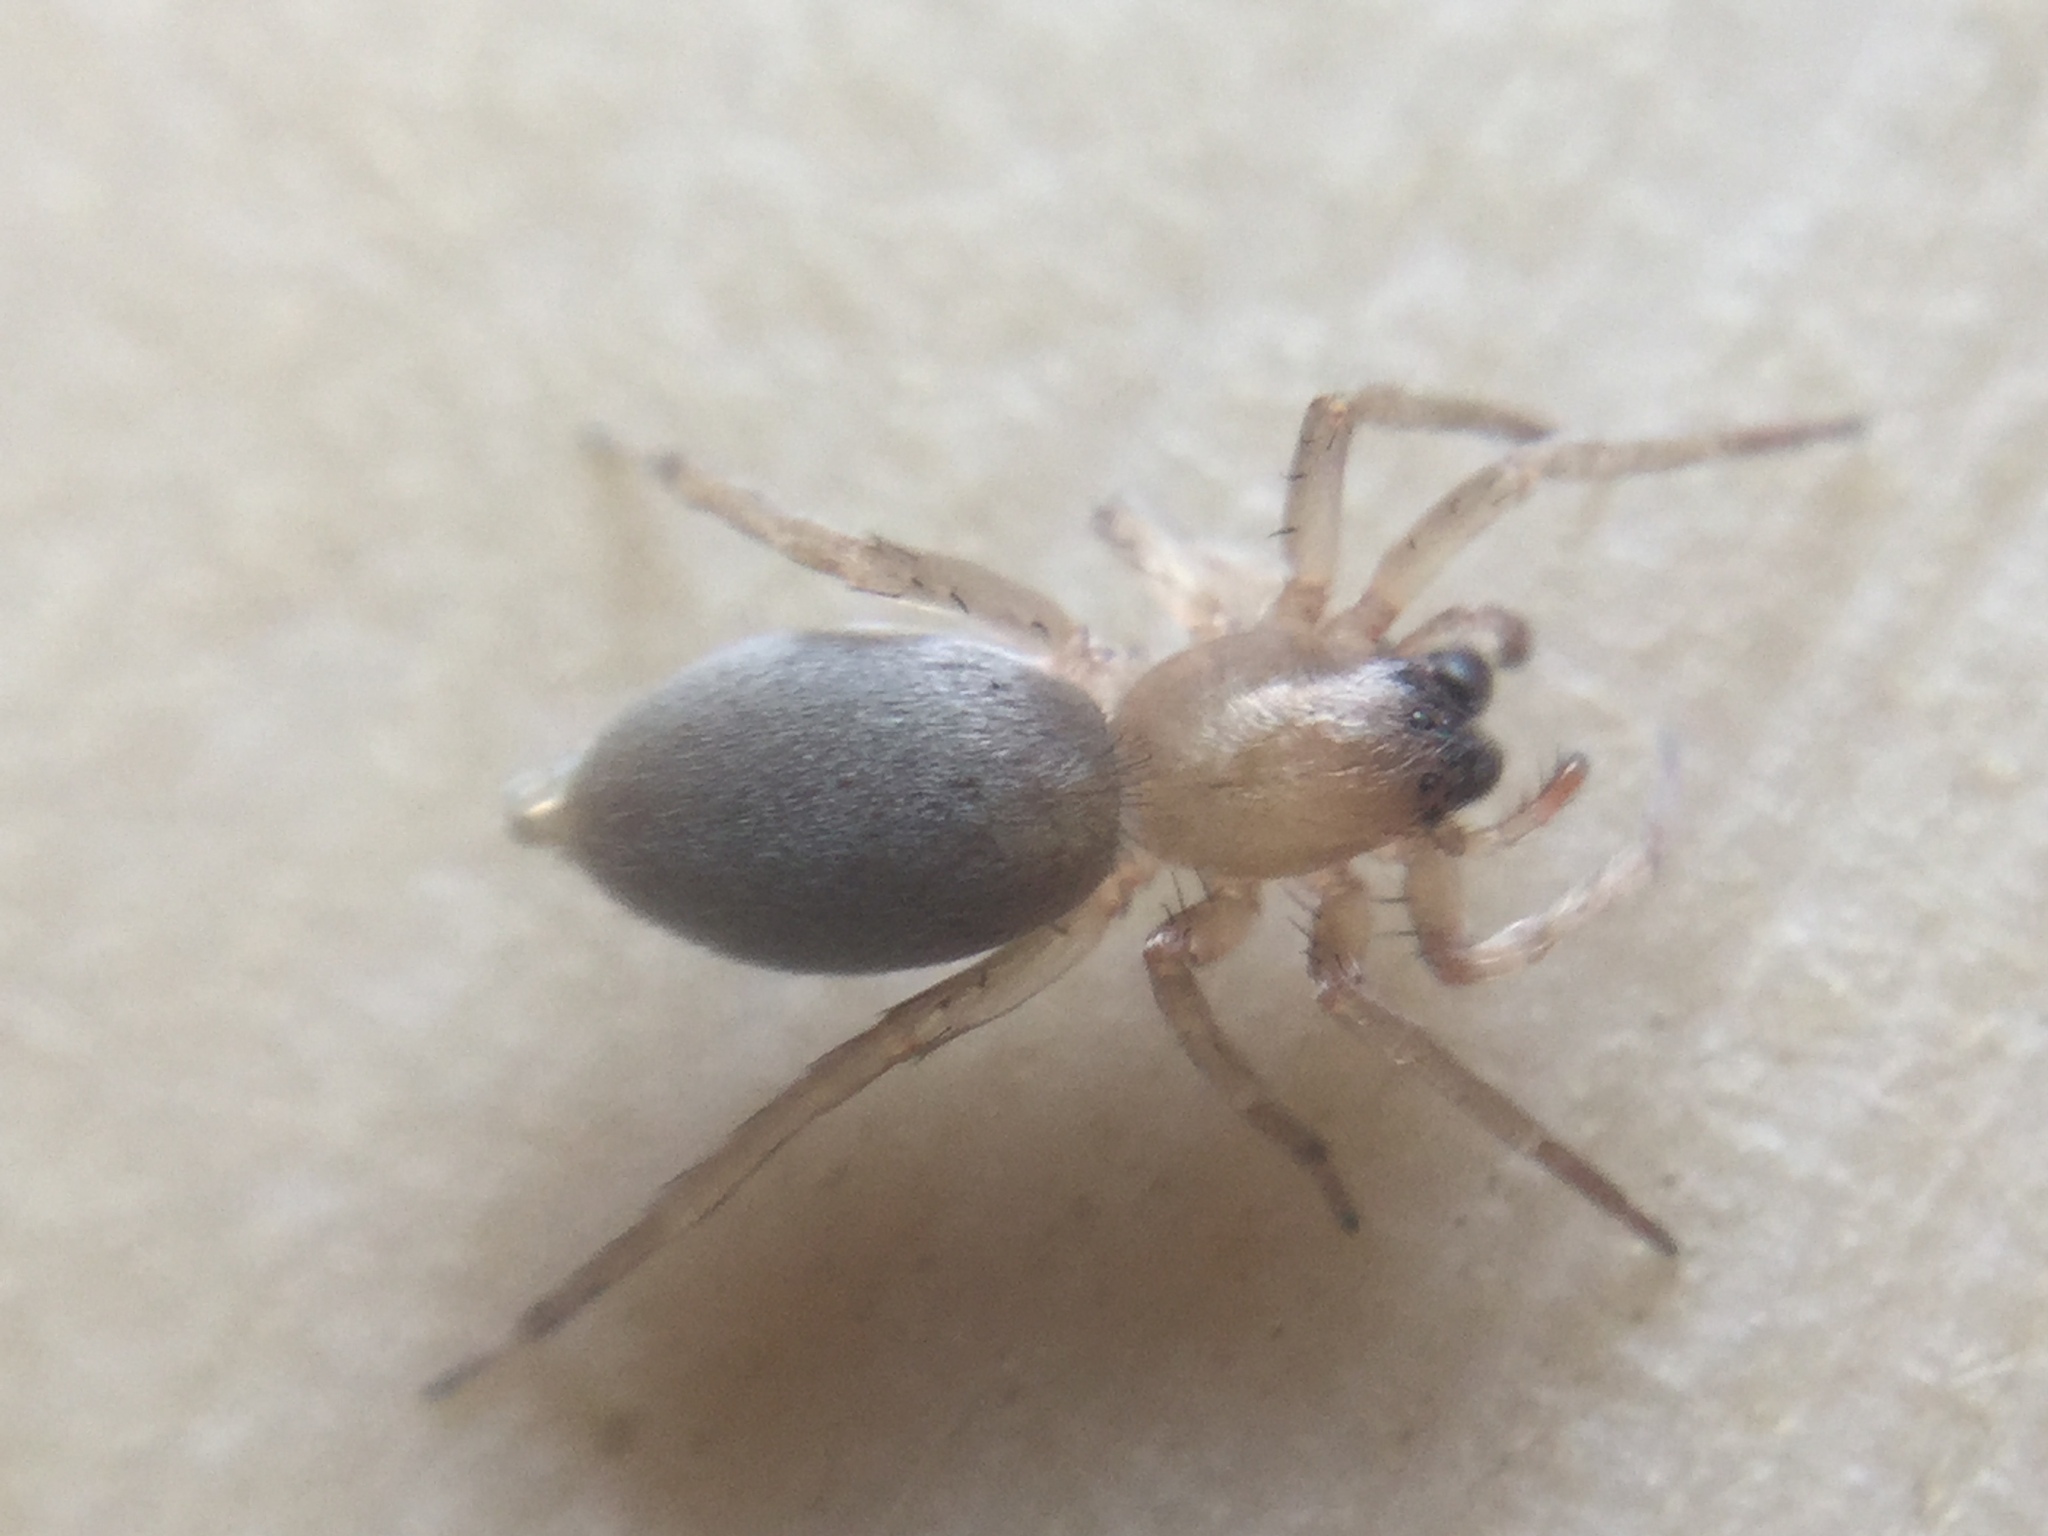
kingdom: Animalia
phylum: Arthropoda
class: Arachnida
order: Araneae
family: Clubionidae
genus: Clubiona
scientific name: Clubiona
